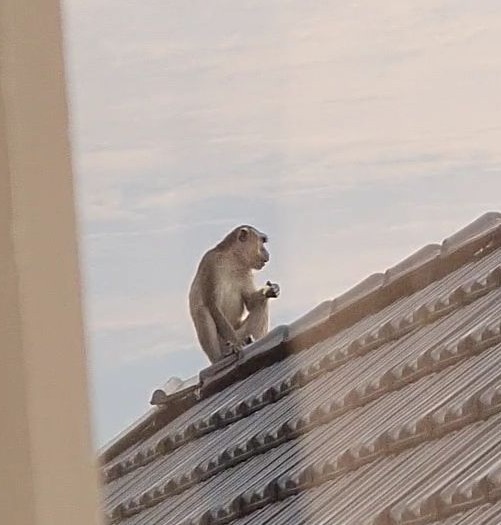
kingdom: Animalia
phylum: Chordata
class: Mammalia
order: Primates
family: Cercopithecidae
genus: Macaca
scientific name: Macaca fascicularis
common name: Crab-eating macaque
